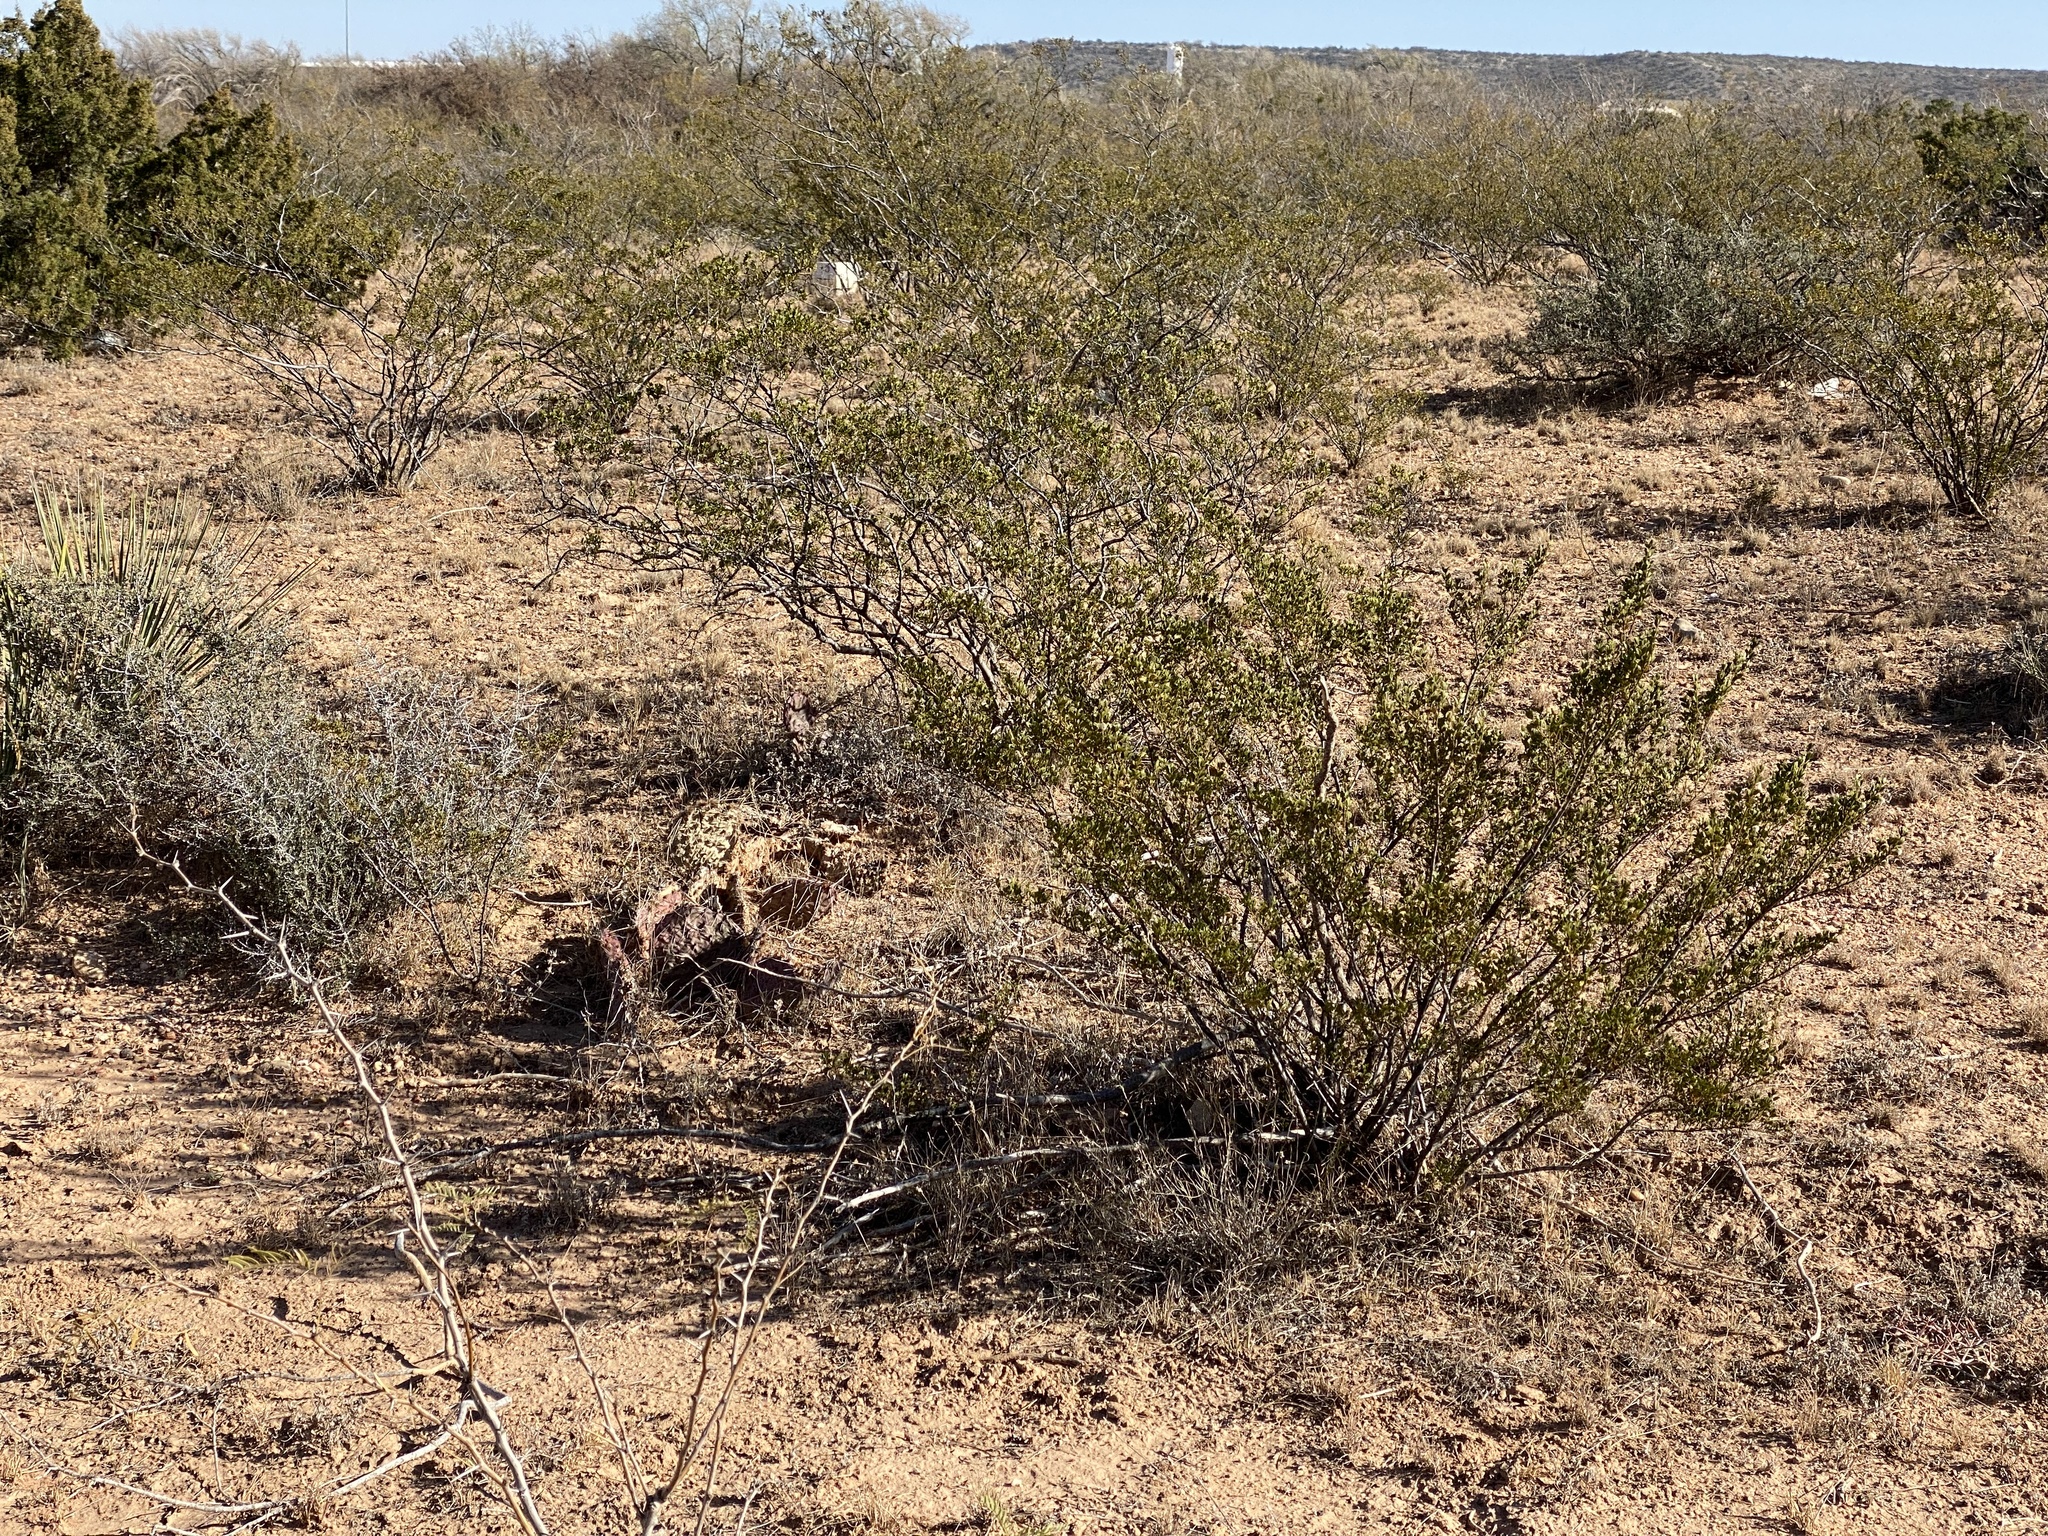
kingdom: Plantae
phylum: Tracheophyta
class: Magnoliopsida
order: Zygophyllales
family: Zygophyllaceae
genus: Larrea
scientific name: Larrea tridentata
